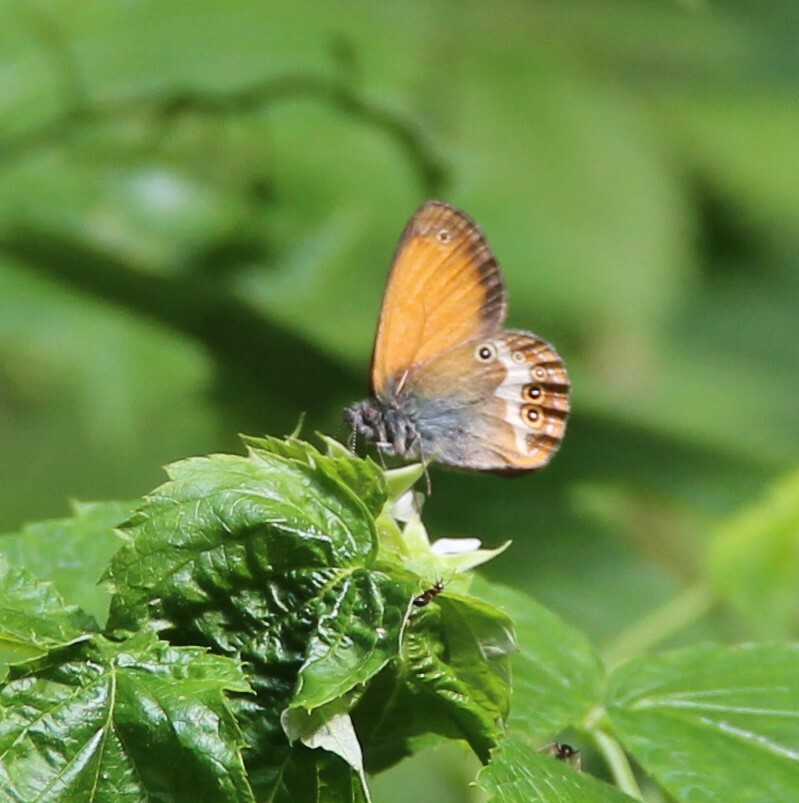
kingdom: Animalia
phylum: Arthropoda
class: Insecta
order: Lepidoptera
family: Nymphalidae
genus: Coenonympha
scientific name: Coenonympha arcania
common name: Pearly heath
